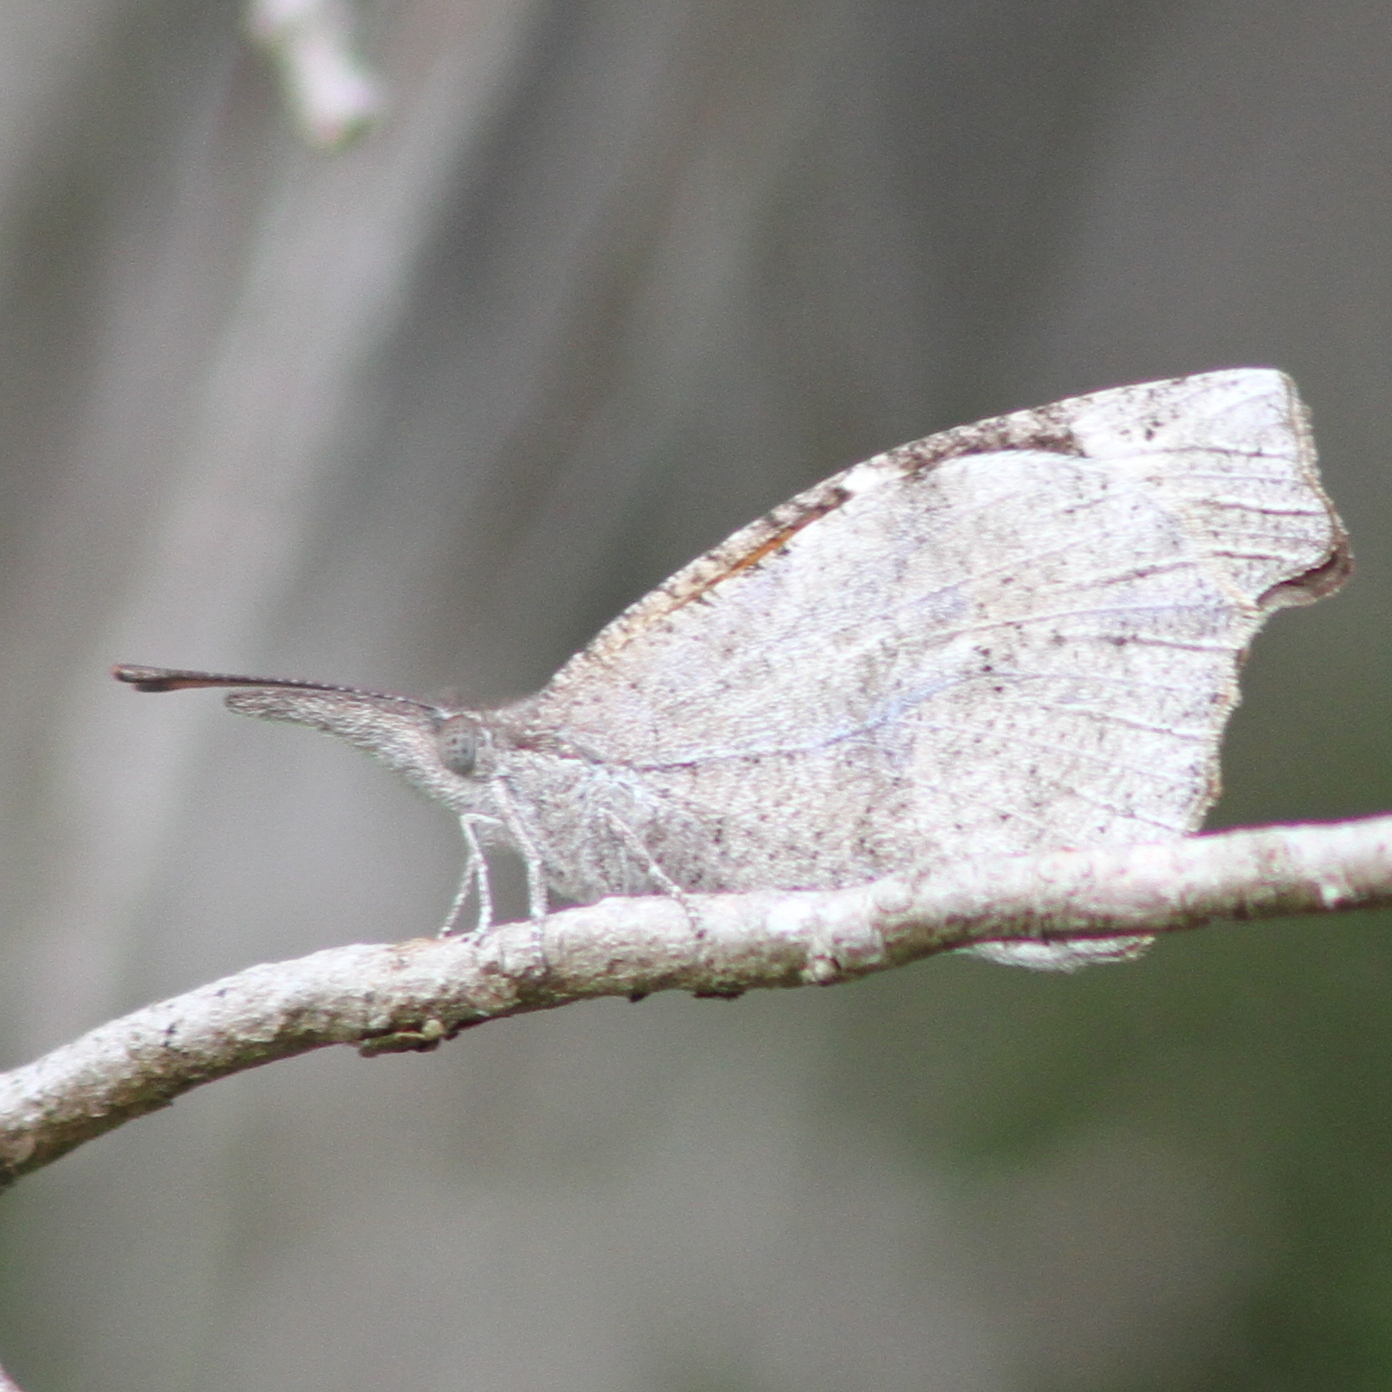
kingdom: Animalia
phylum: Arthropoda
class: Insecta
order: Lepidoptera
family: Nymphalidae
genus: Libytheana
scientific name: Libytheana carinenta
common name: American snout
